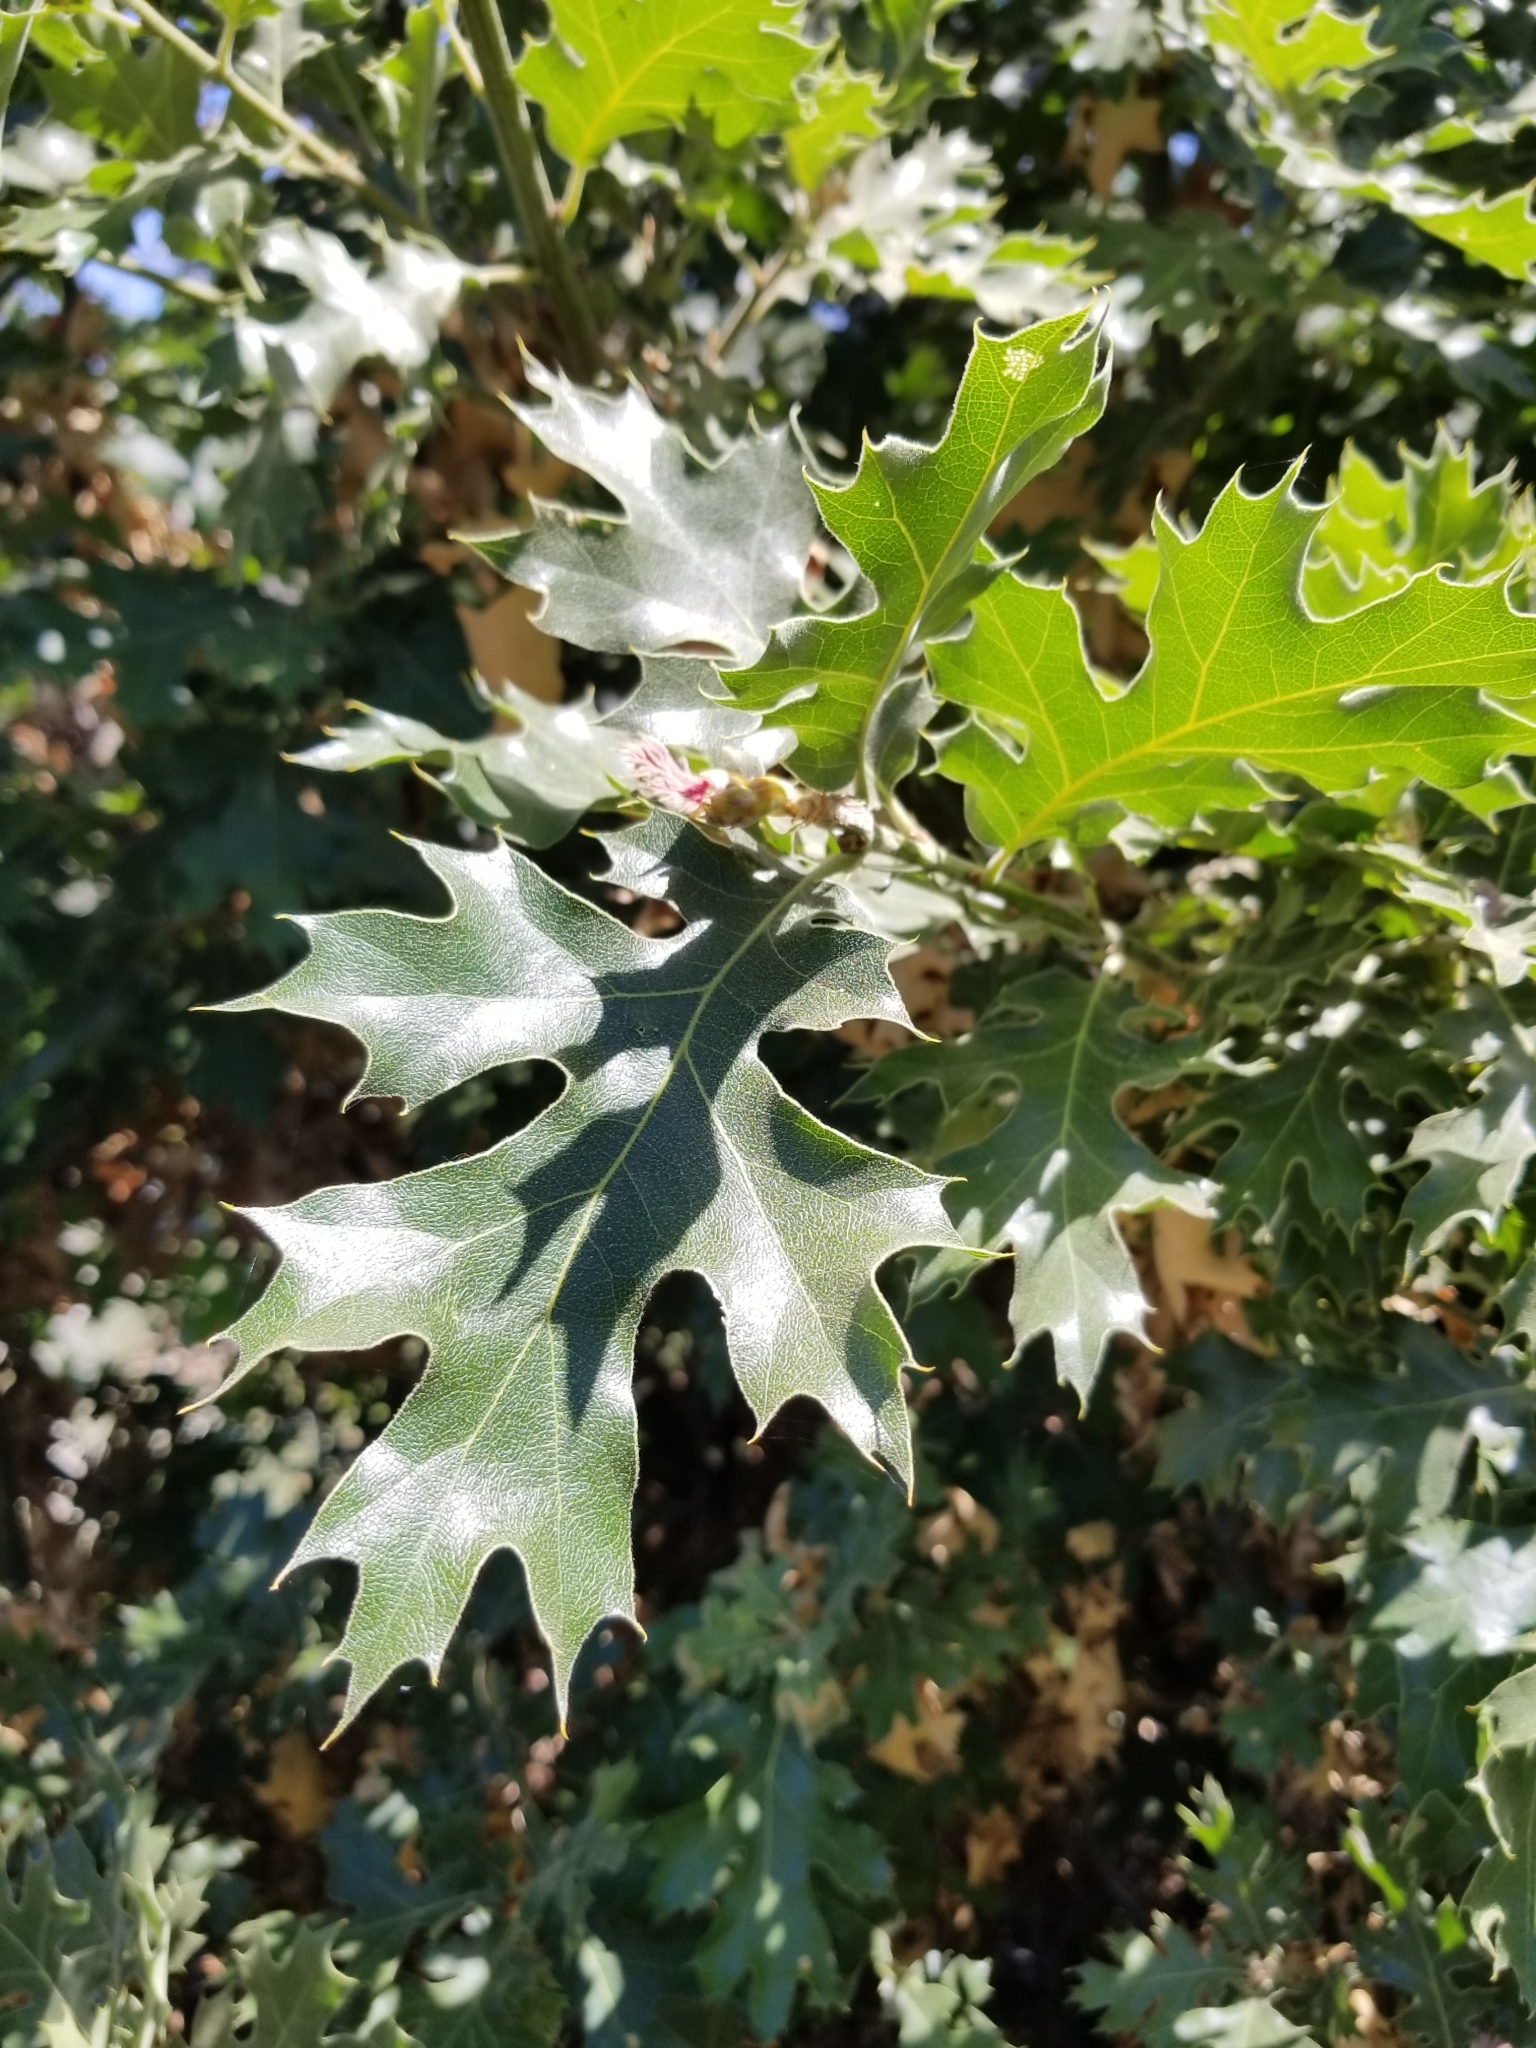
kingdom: Plantae
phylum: Tracheophyta
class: Magnoliopsida
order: Fagales
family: Fagaceae
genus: Quercus
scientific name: Quercus kelloggii
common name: California black oak
